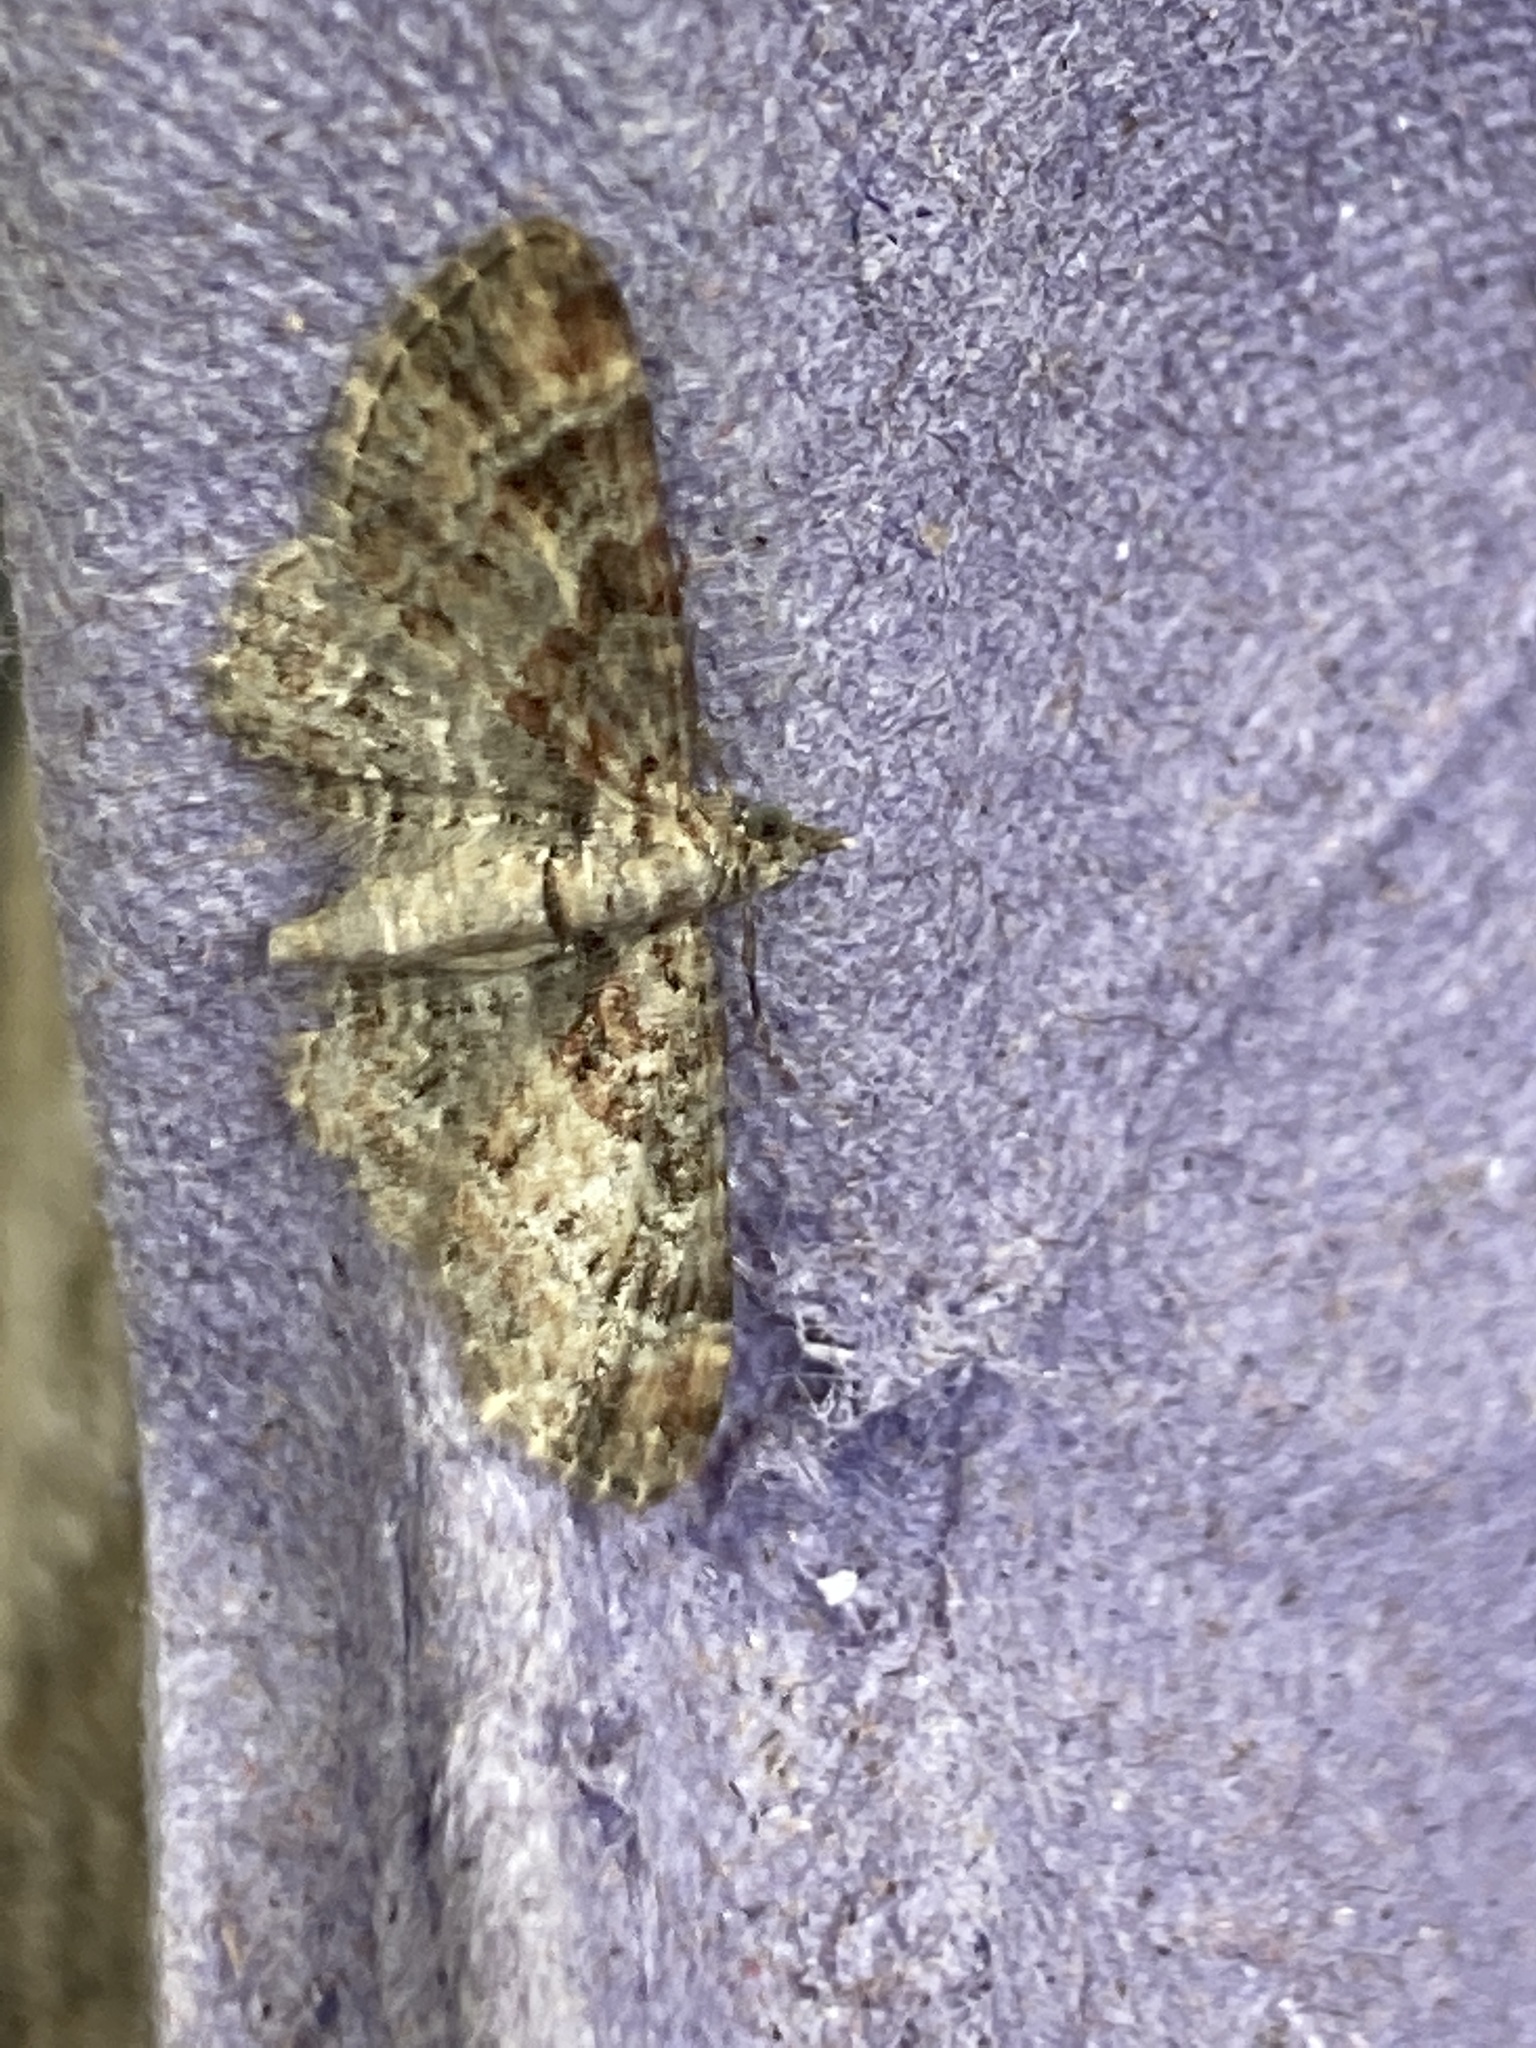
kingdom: Animalia
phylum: Arthropoda
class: Insecta
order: Lepidoptera
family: Geometridae
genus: Gymnoscelis
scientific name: Gymnoscelis rufifasciata
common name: Double-striped pug
